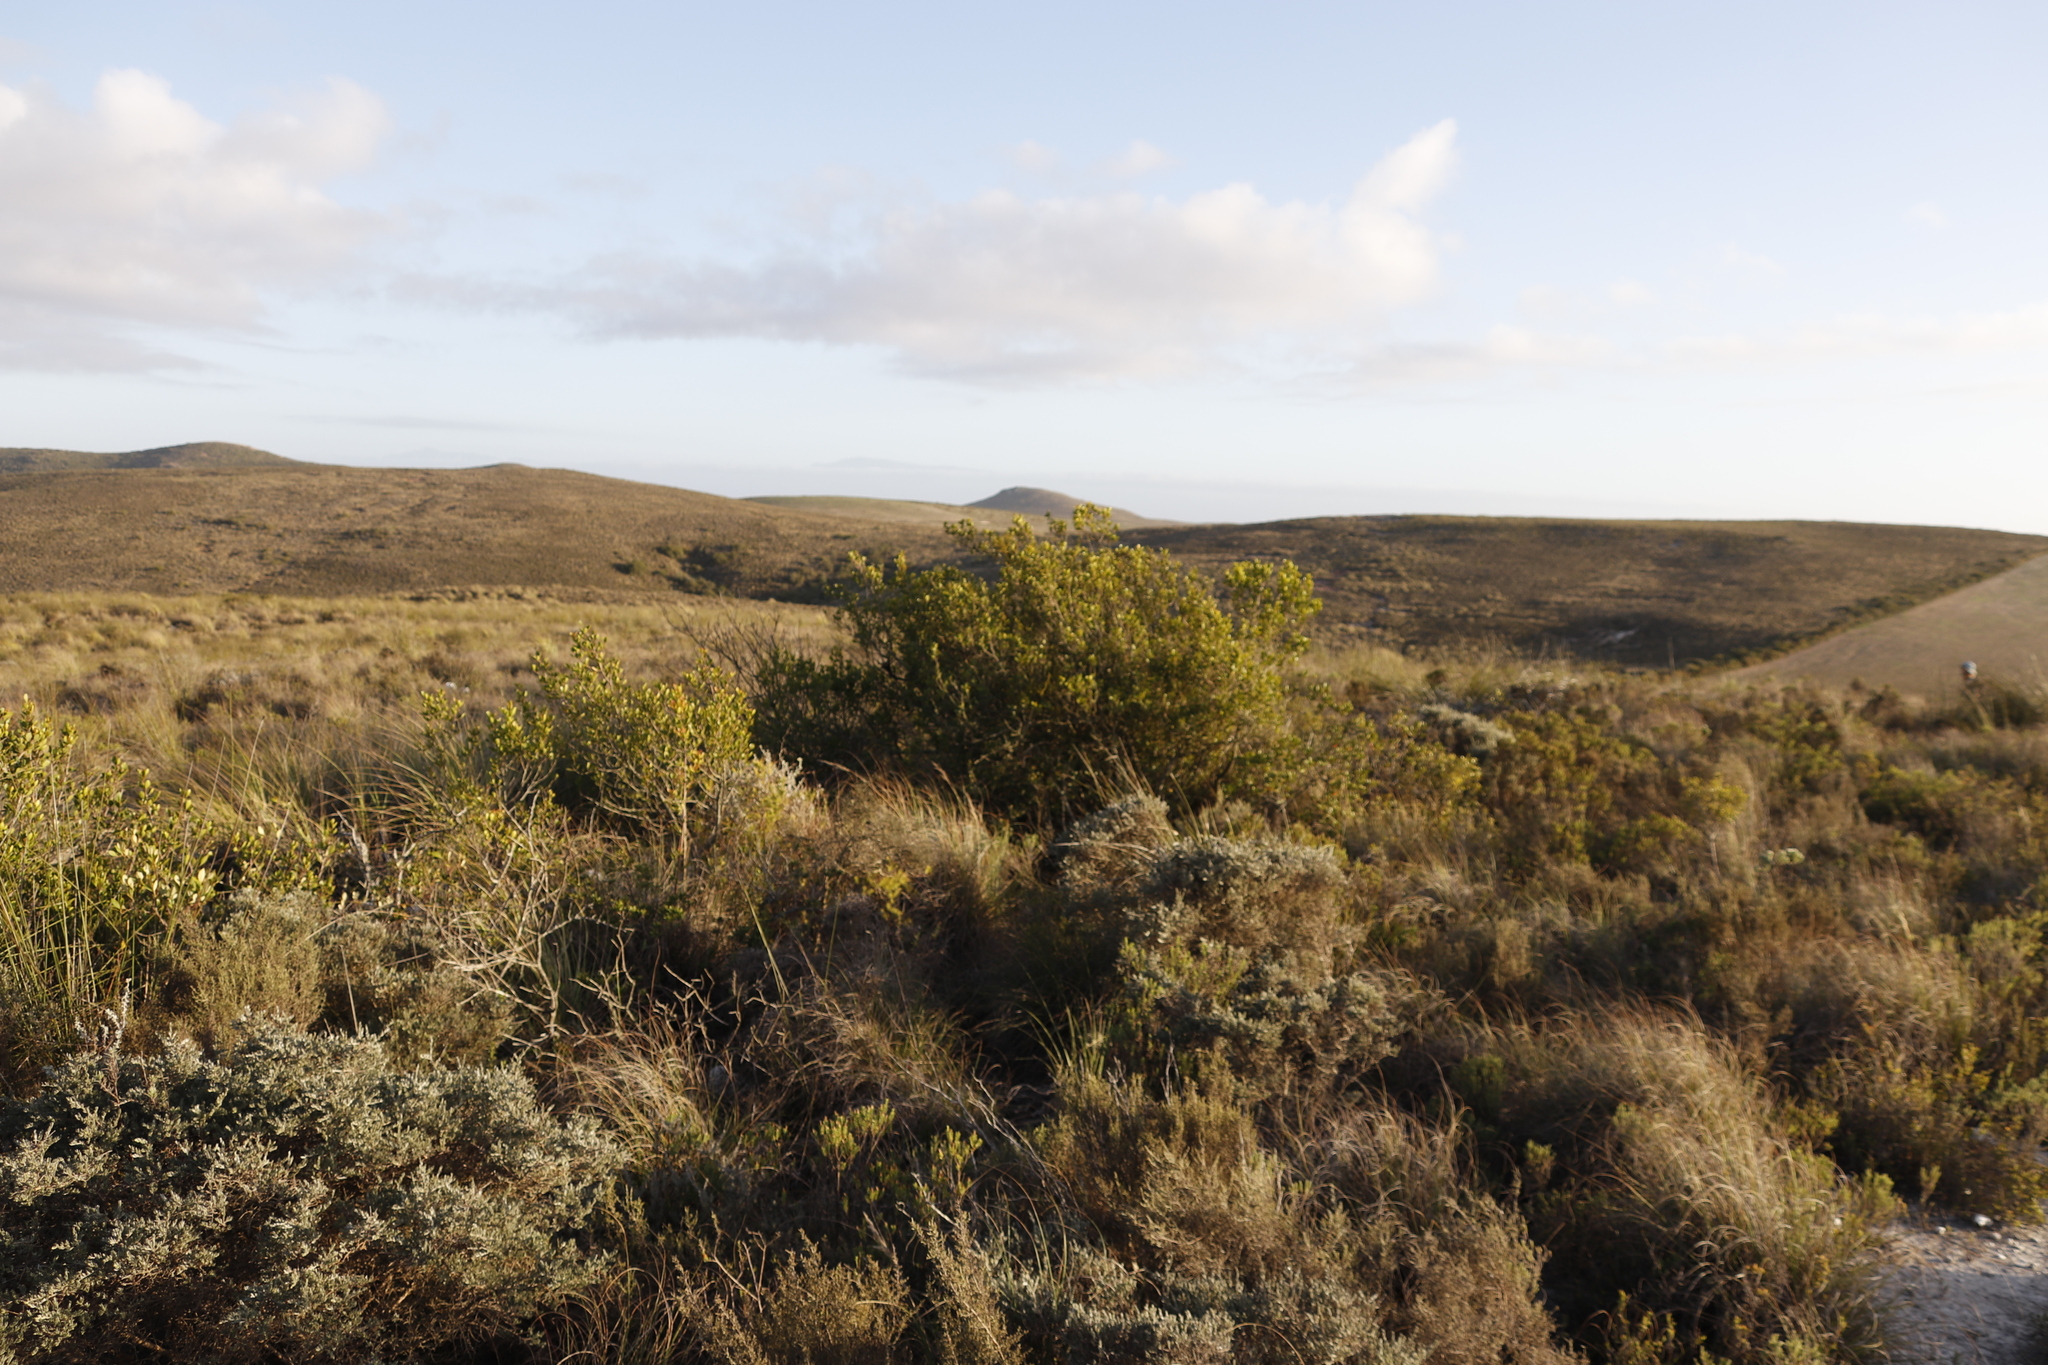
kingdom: Plantae
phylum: Tracheophyta
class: Magnoliopsida
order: Sapindales
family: Anacardiaceae
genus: Searsia
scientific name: Searsia lucida
